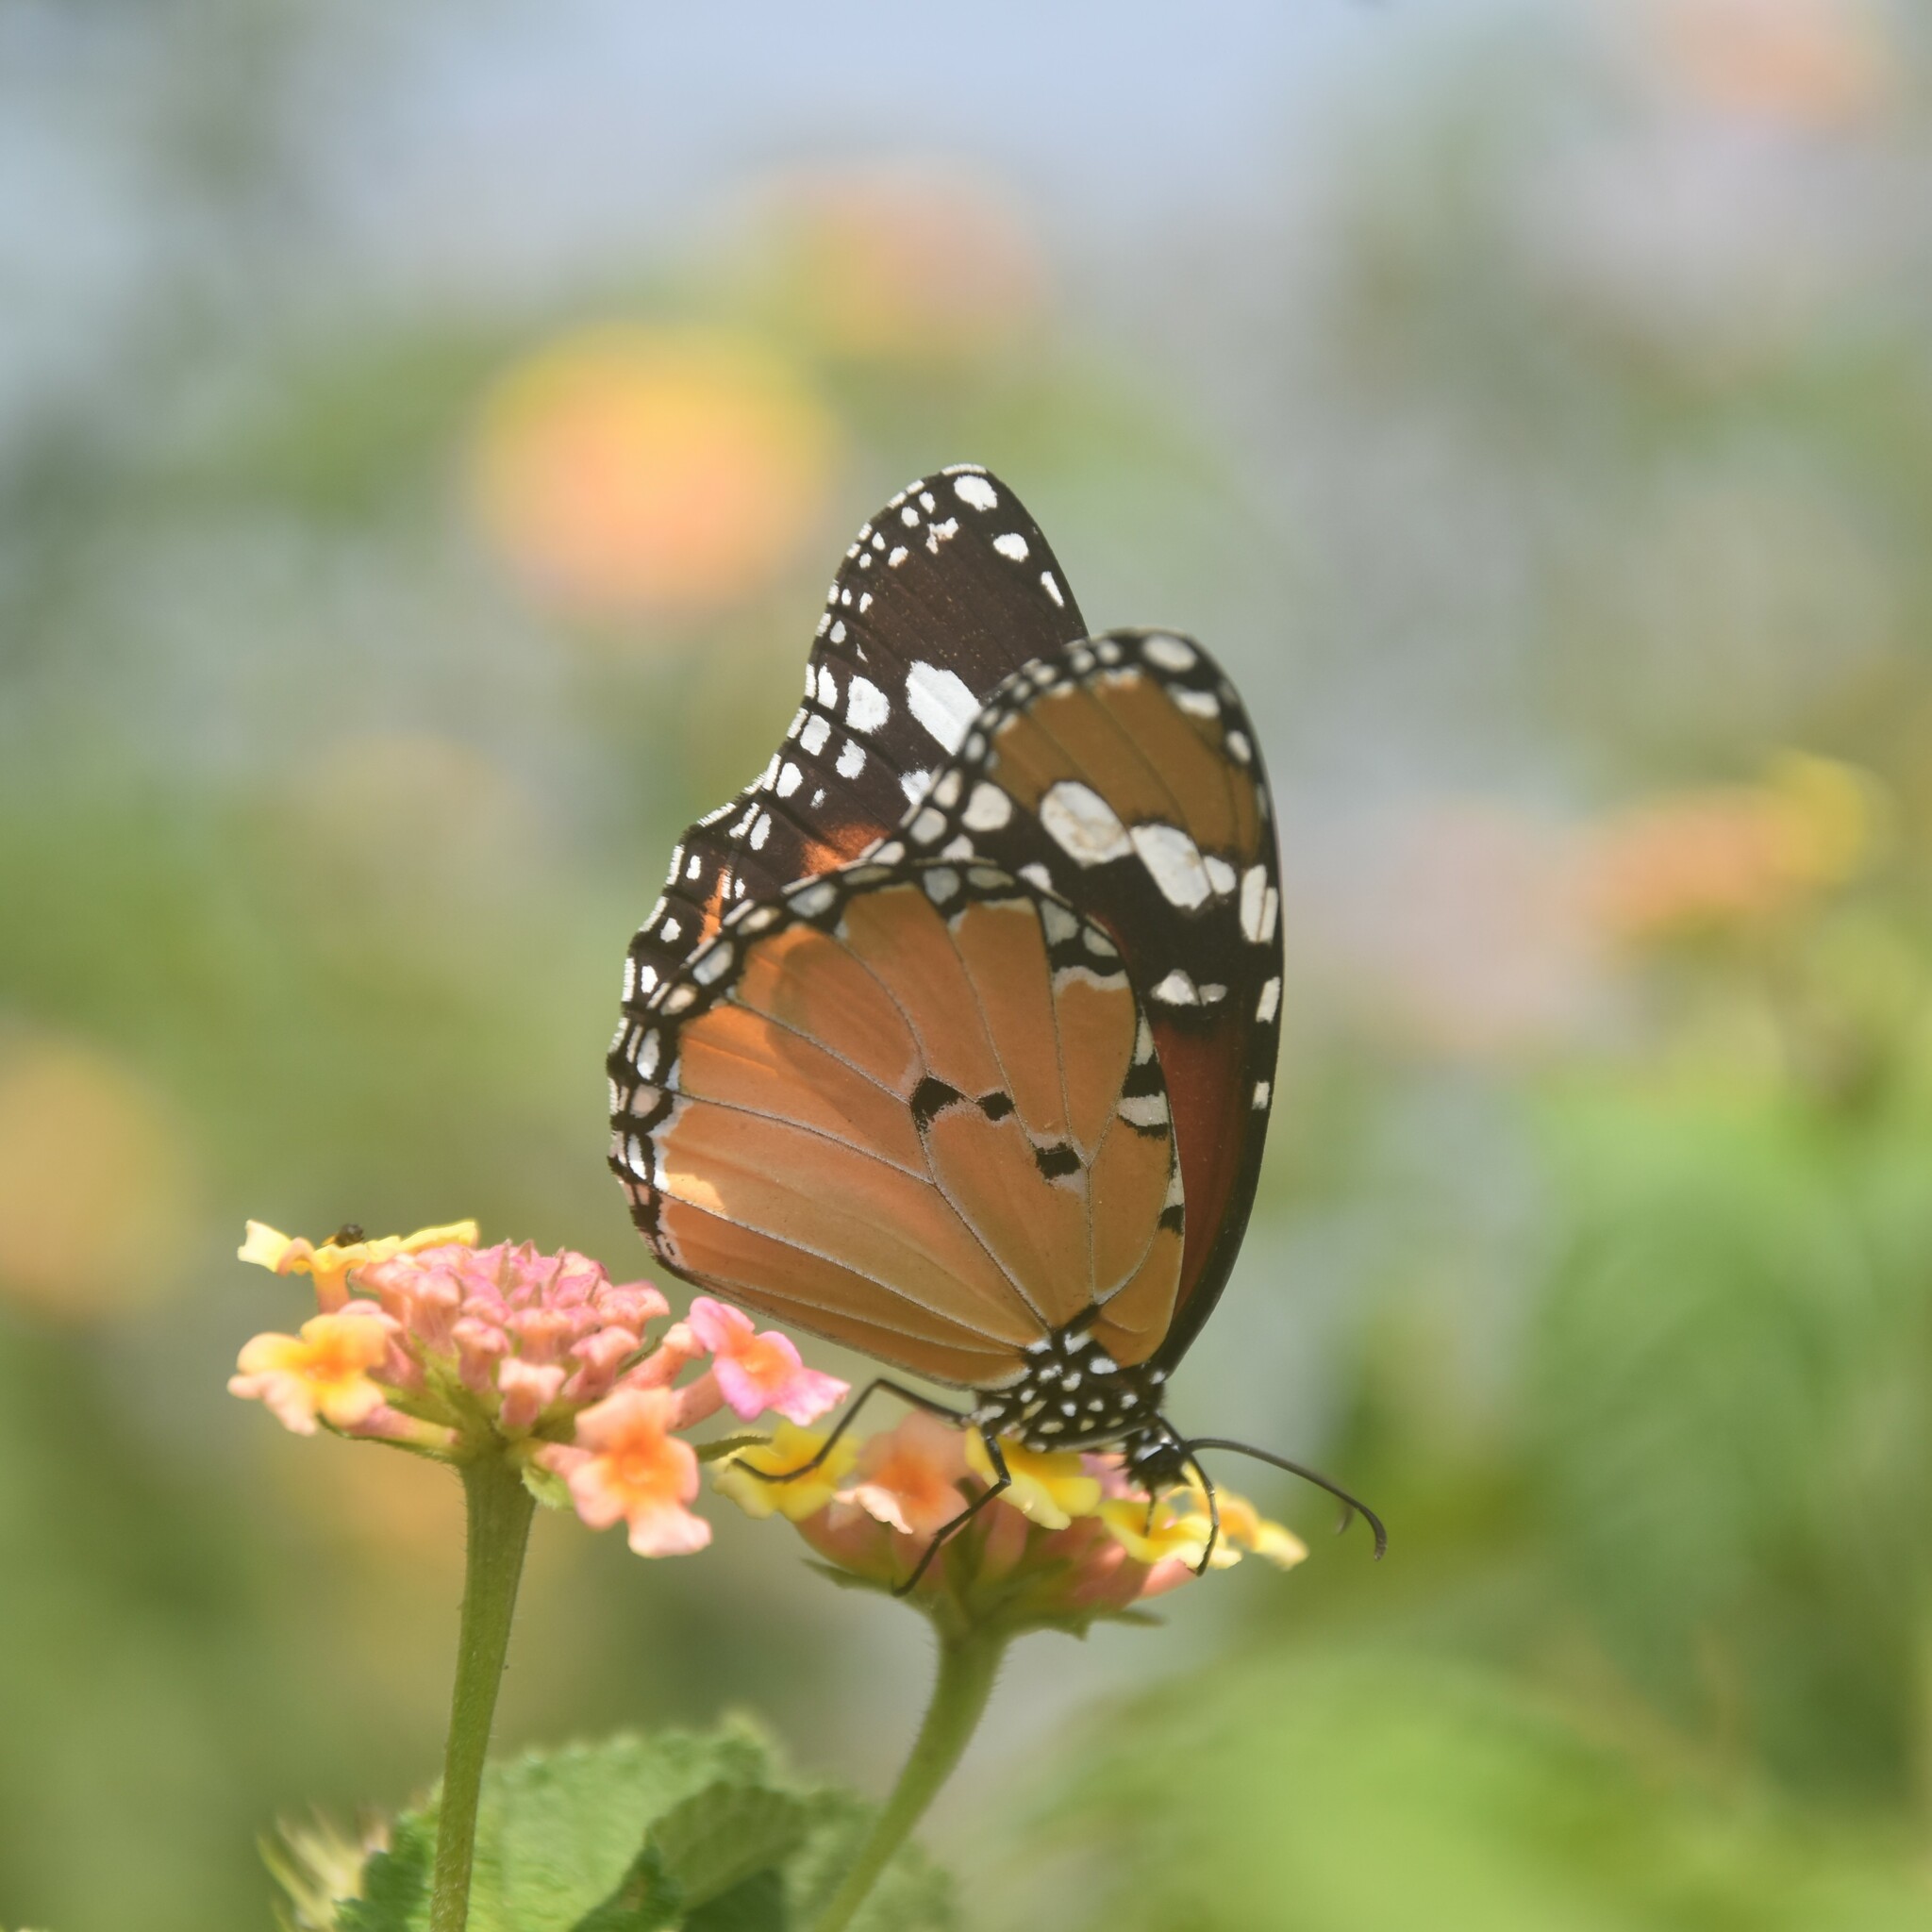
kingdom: Animalia
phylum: Arthropoda
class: Insecta
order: Lepidoptera
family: Nymphalidae
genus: Danaus
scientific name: Danaus chrysippus
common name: Plain tiger
